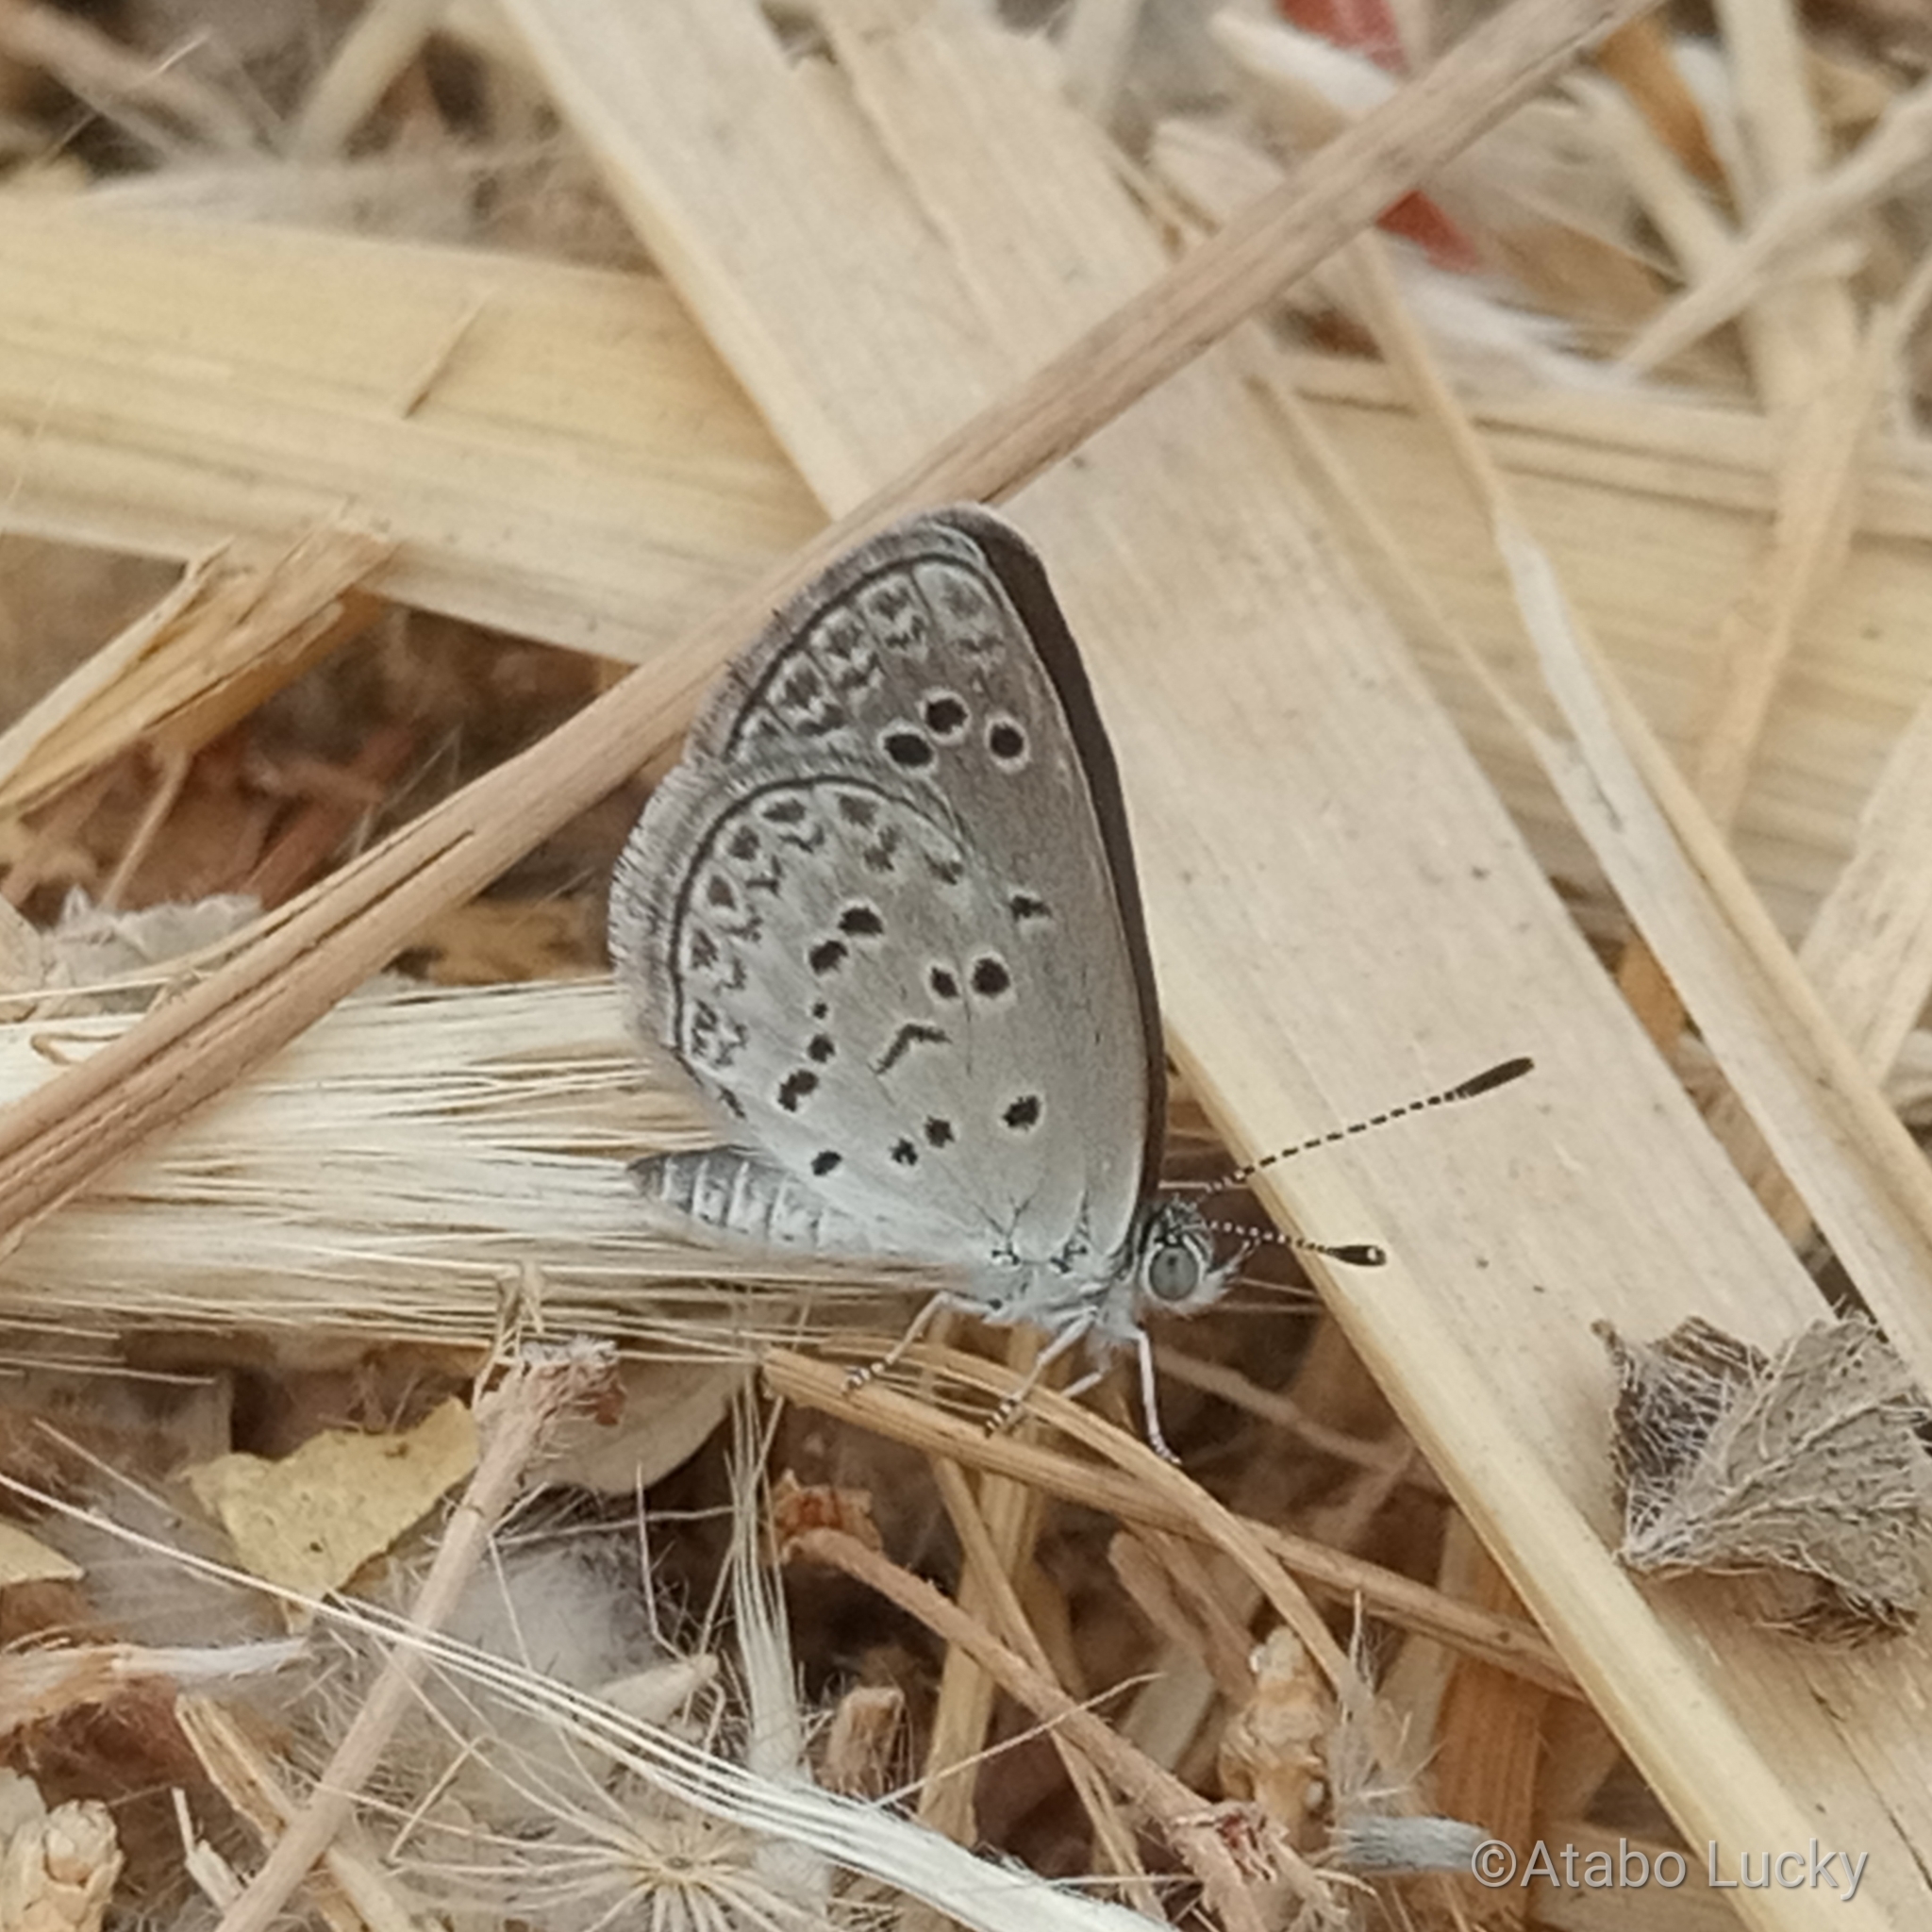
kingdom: Animalia
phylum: Arthropoda
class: Insecta
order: Lepidoptera
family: Lycaenidae
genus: Zizina
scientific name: Zizina antanossa
